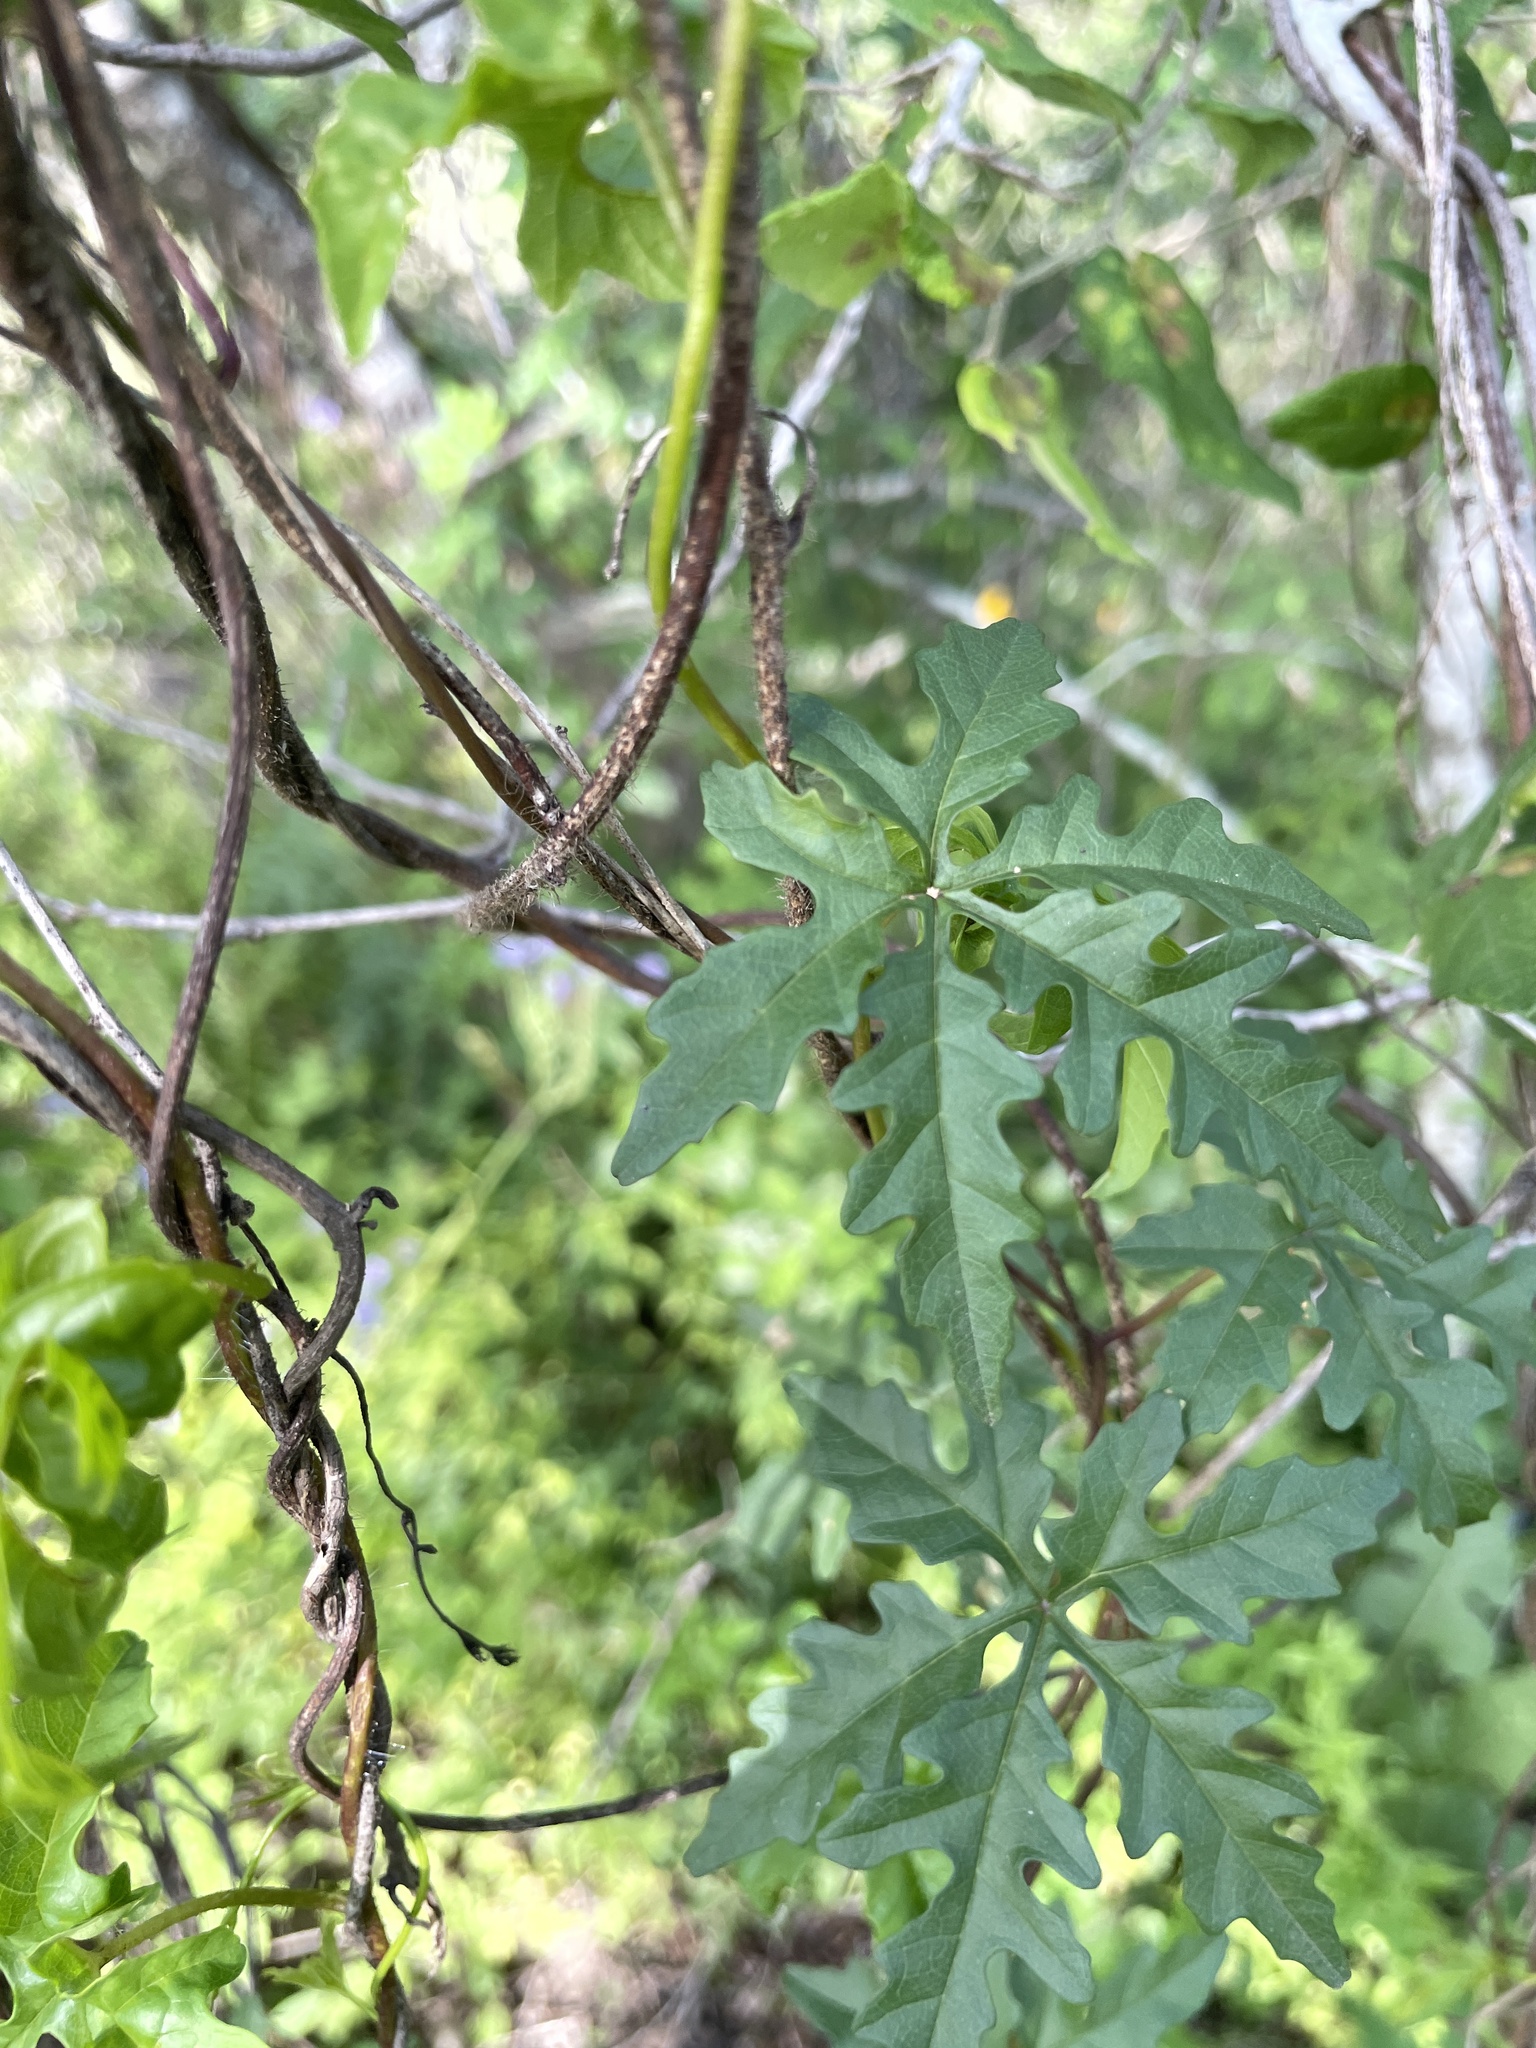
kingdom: Plantae
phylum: Tracheophyta
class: Magnoliopsida
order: Solanales
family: Convolvulaceae
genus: Distimake
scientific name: Distimake dissectus
